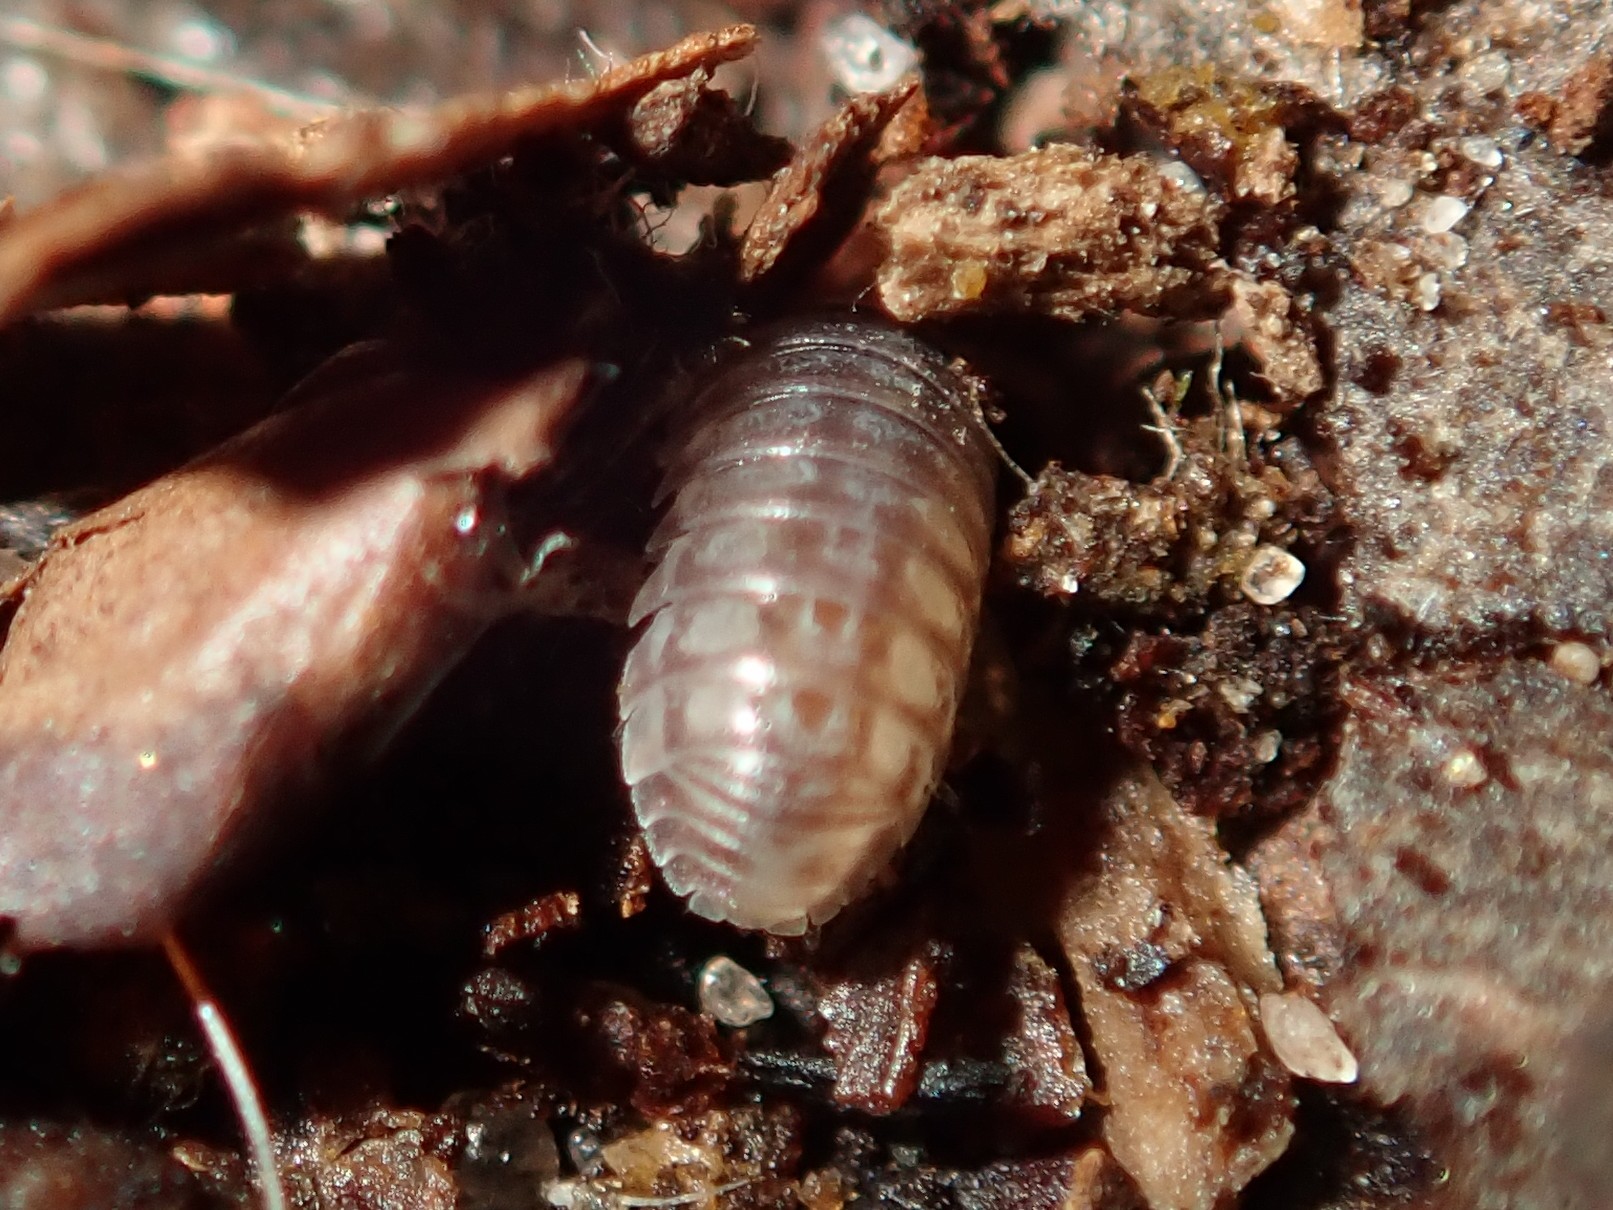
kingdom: Animalia
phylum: Arthropoda
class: Malacostraca
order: Isopoda
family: Armadillidiidae
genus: Armadillidium
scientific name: Armadillidium vulgare
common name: Common pill woodlouse
